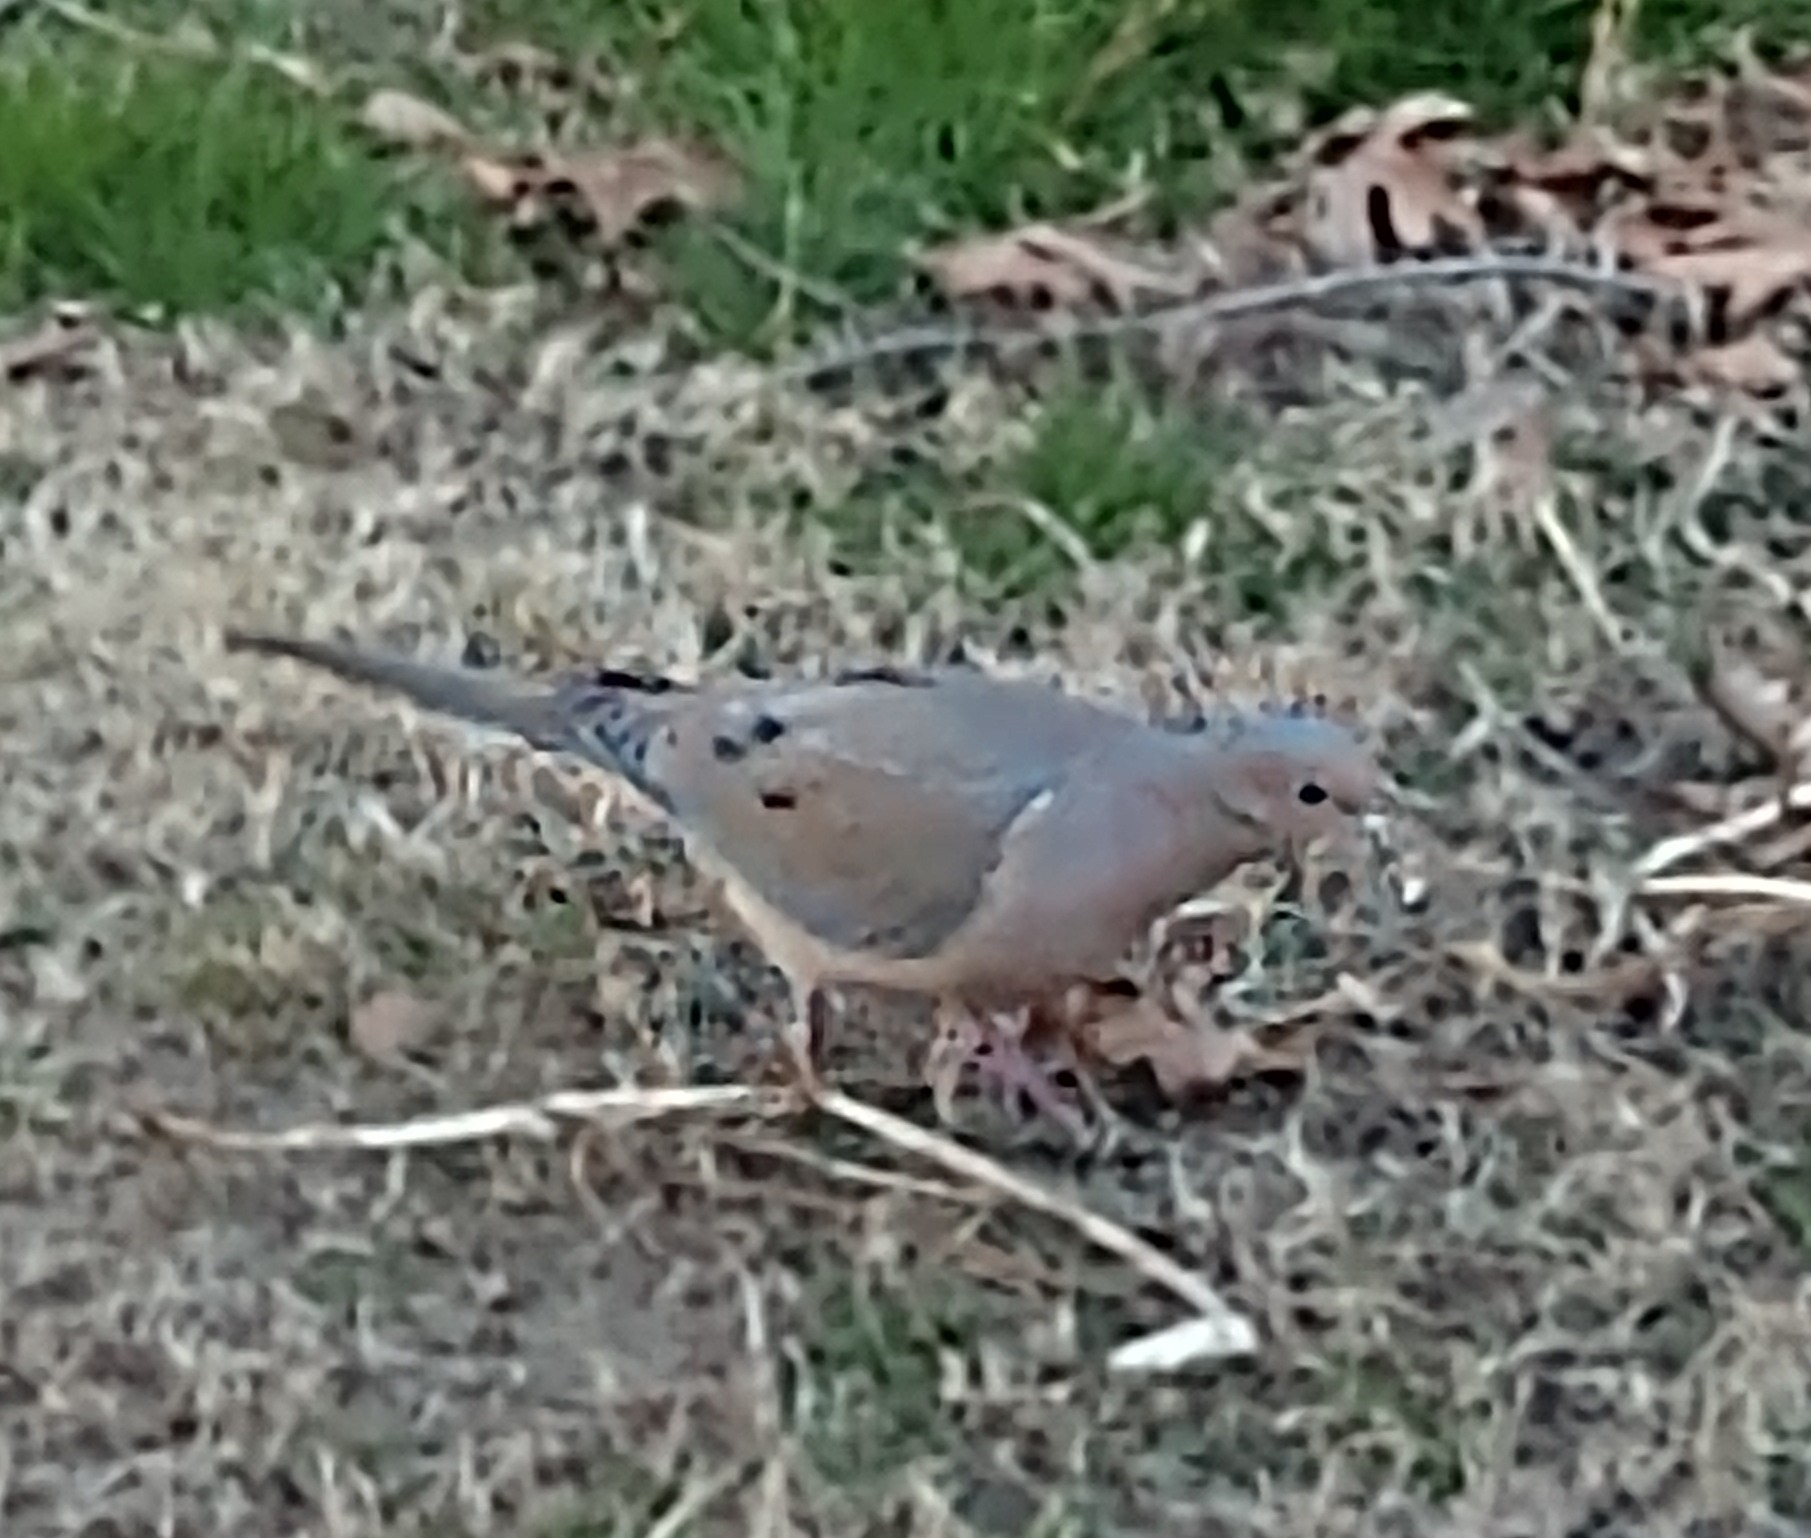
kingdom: Animalia
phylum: Chordata
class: Aves
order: Columbiformes
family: Columbidae
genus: Zenaida
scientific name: Zenaida macroura
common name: Mourning dove
